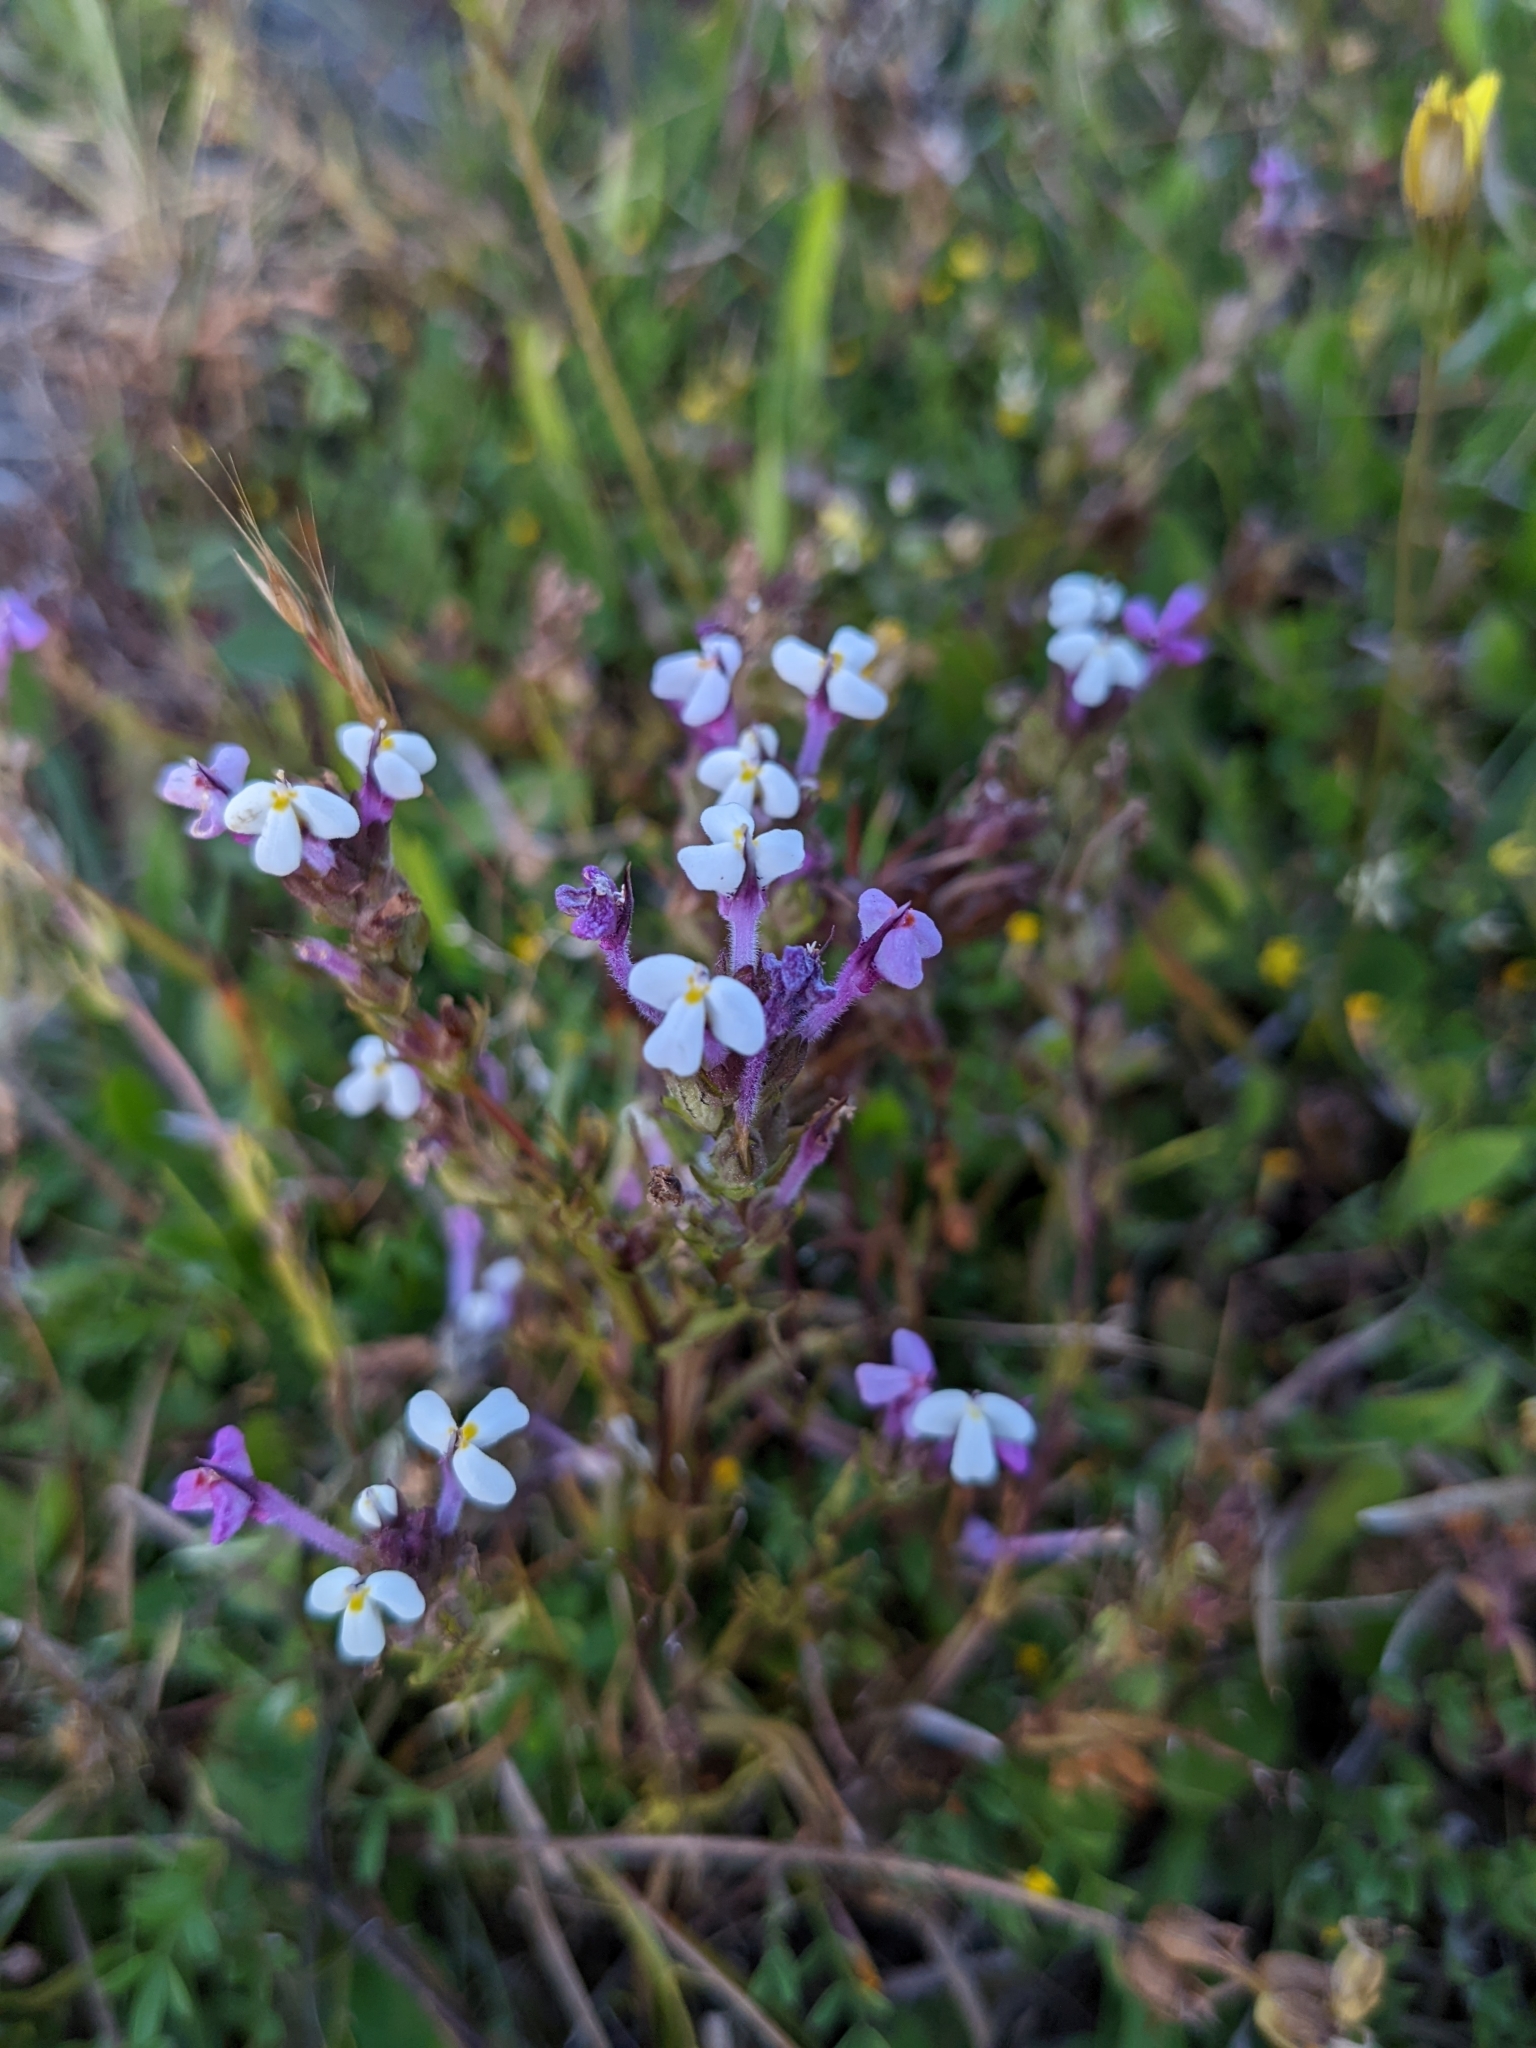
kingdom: Plantae
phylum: Tracheophyta
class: Magnoliopsida
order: Lamiales
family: Orobanchaceae
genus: Triphysaria
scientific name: Triphysaria eriantha
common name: Johnny-tuck
